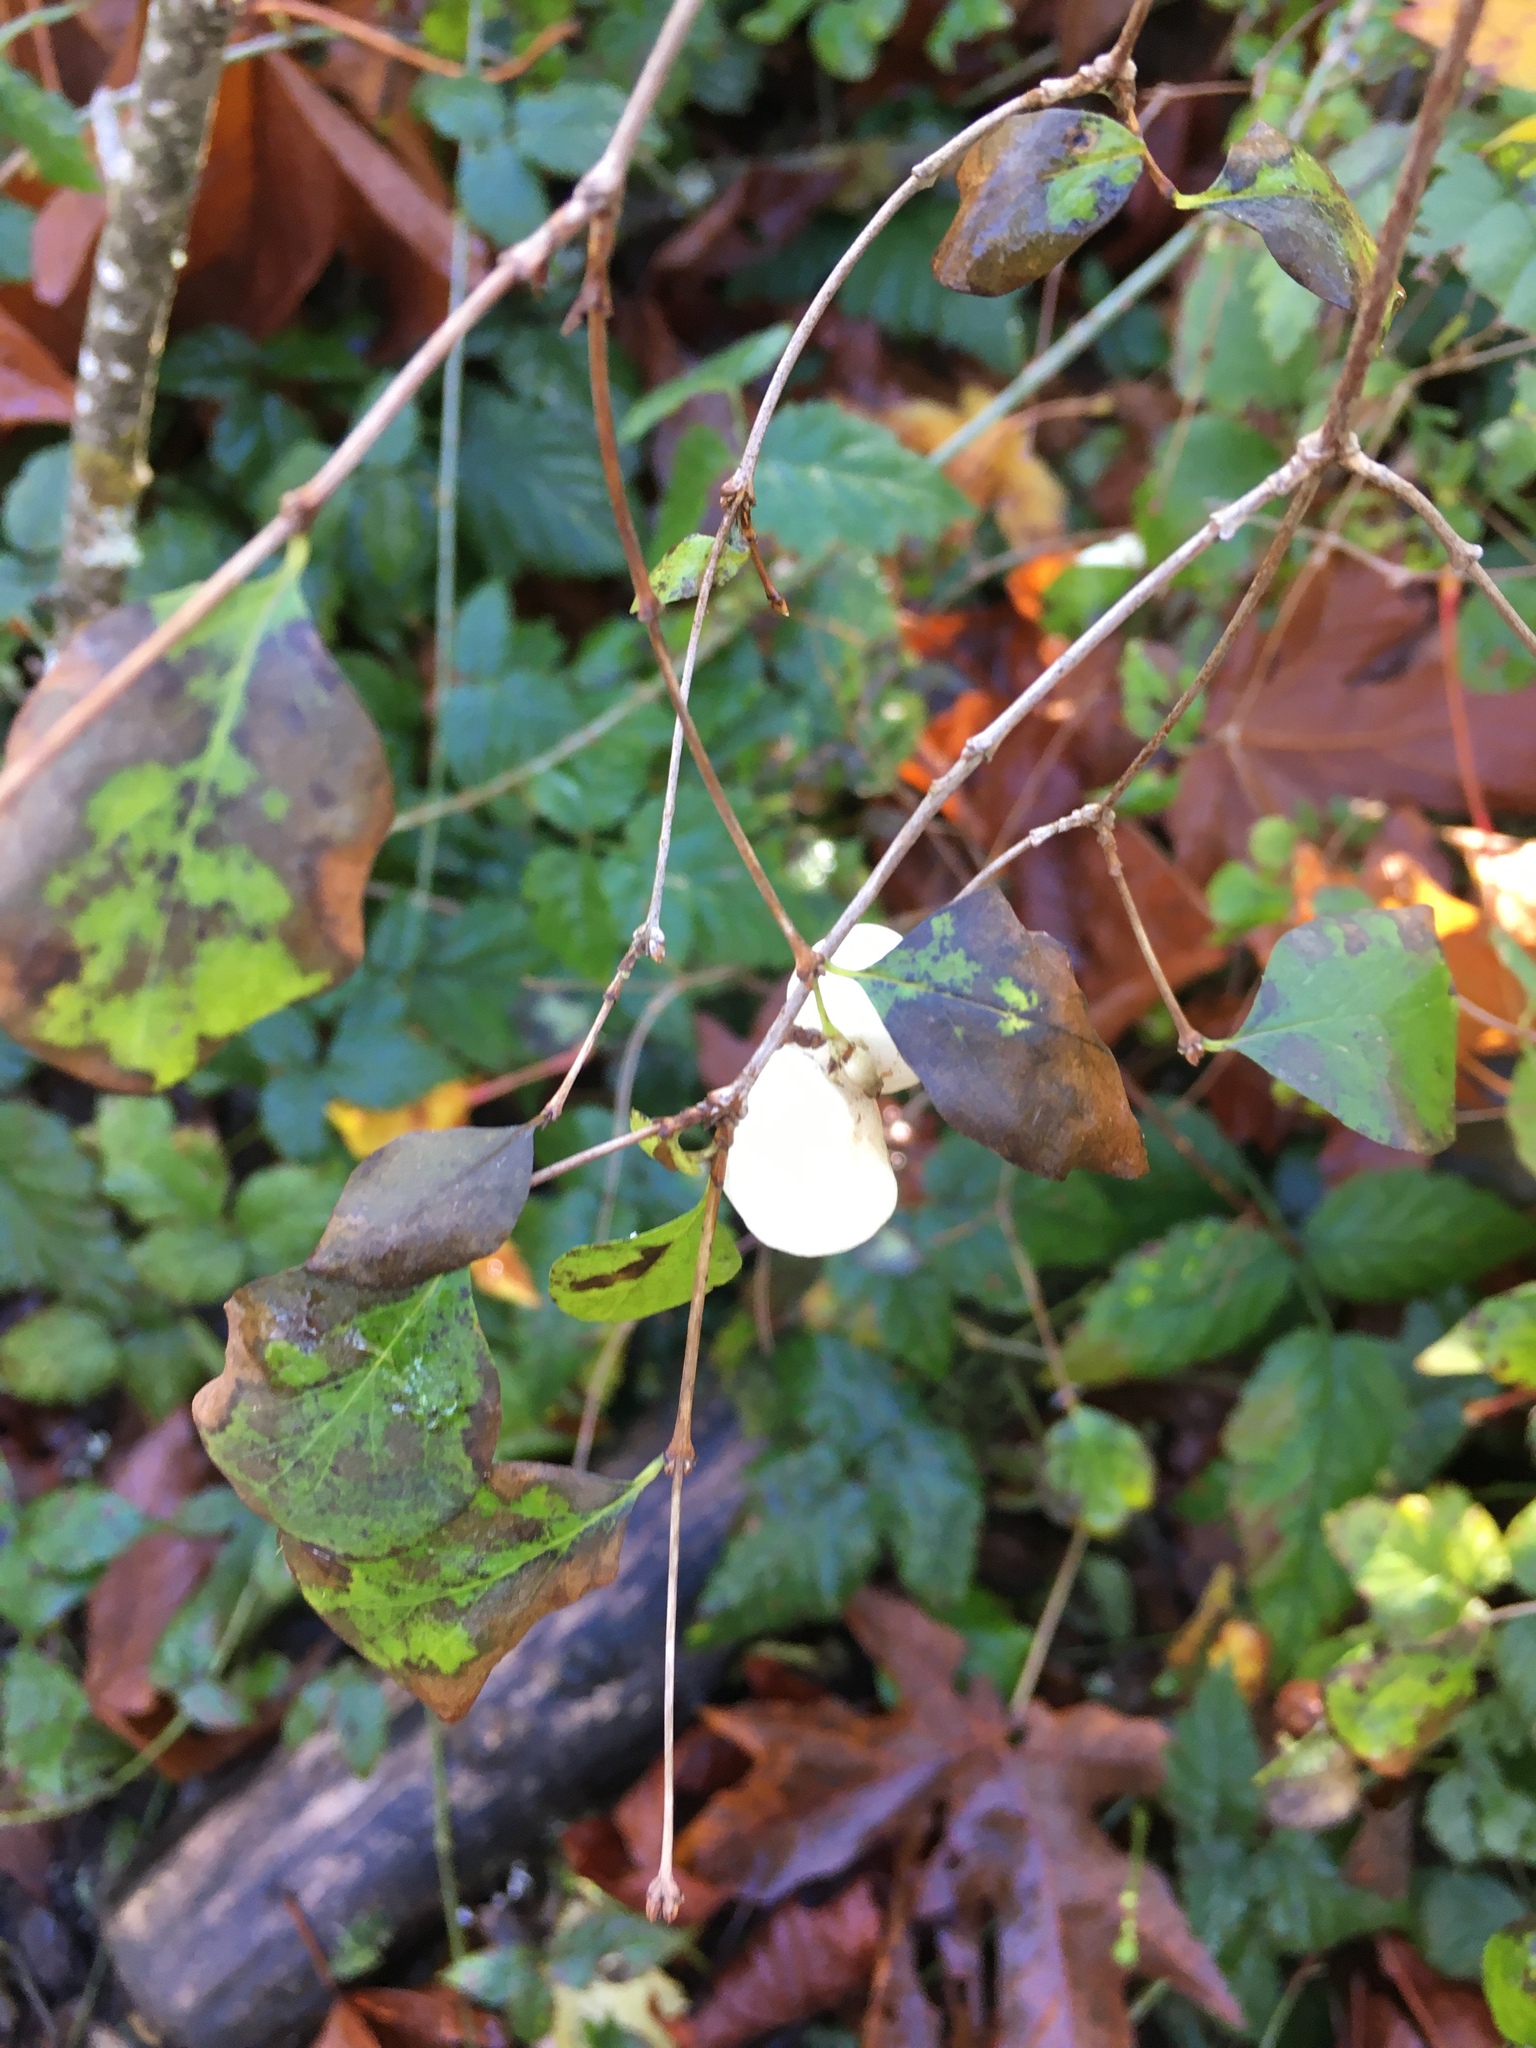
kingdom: Plantae
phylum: Tracheophyta
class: Magnoliopsida
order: Dipsacales
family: Caprifoliaceae
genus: Symphoricarpos
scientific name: Symphoricarpos albus
